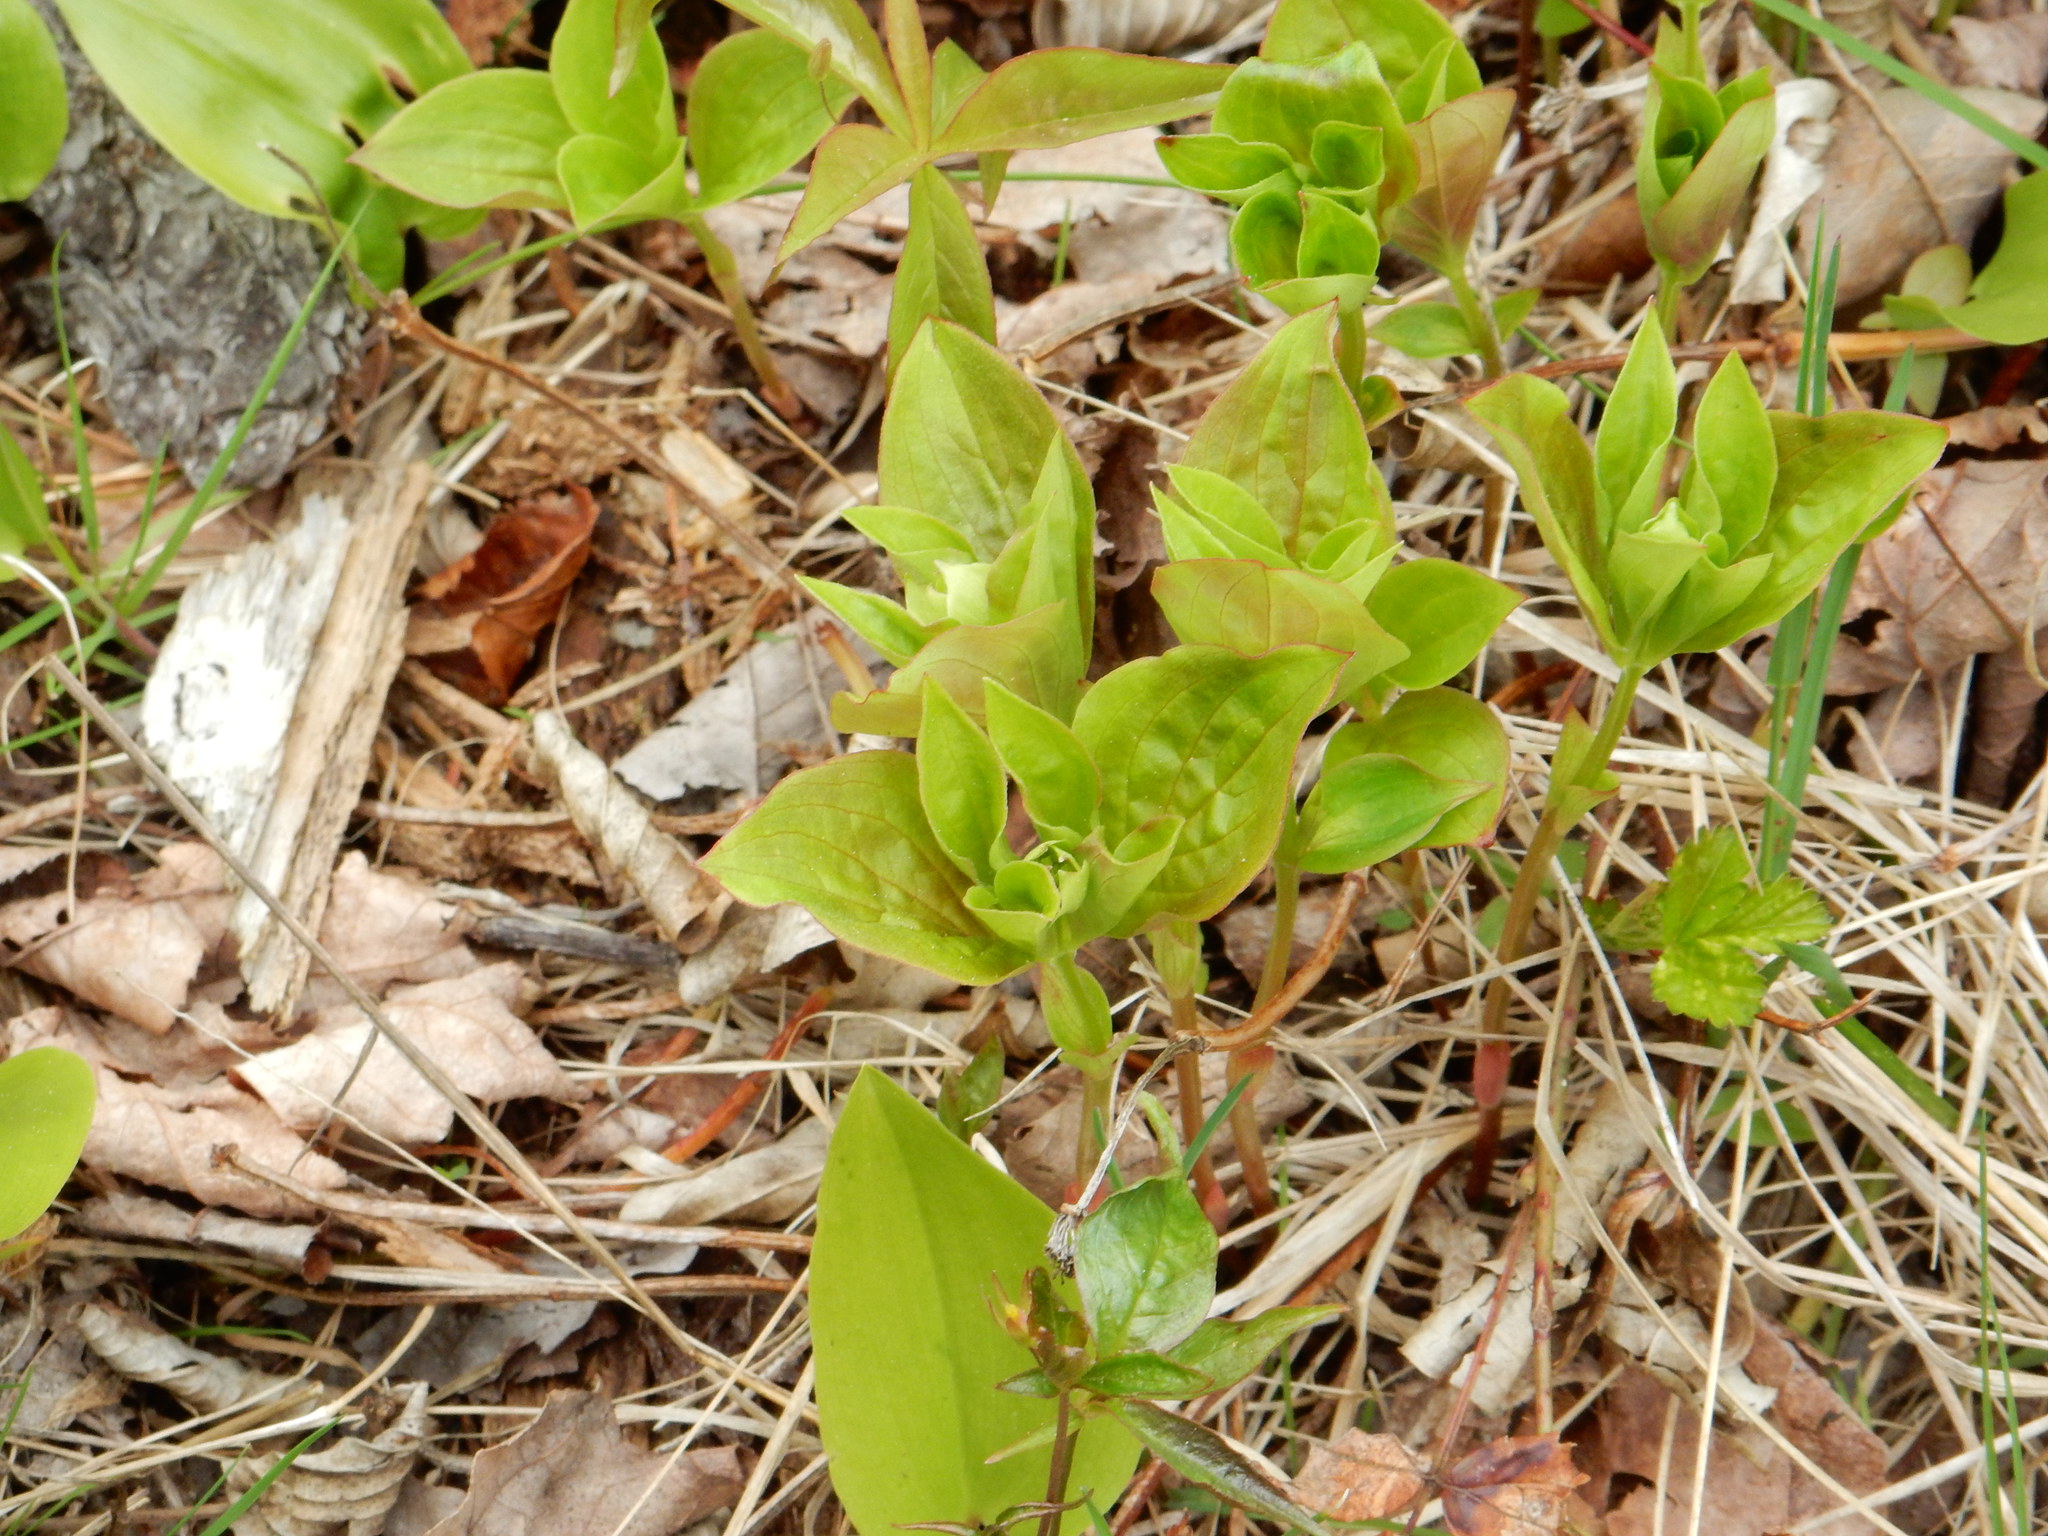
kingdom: Plantae
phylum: Tracheophyta
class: Magnoliopsida
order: Cornales
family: Cornaceae
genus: Cornus
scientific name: Cornus canadensis
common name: Creeping dogwood
